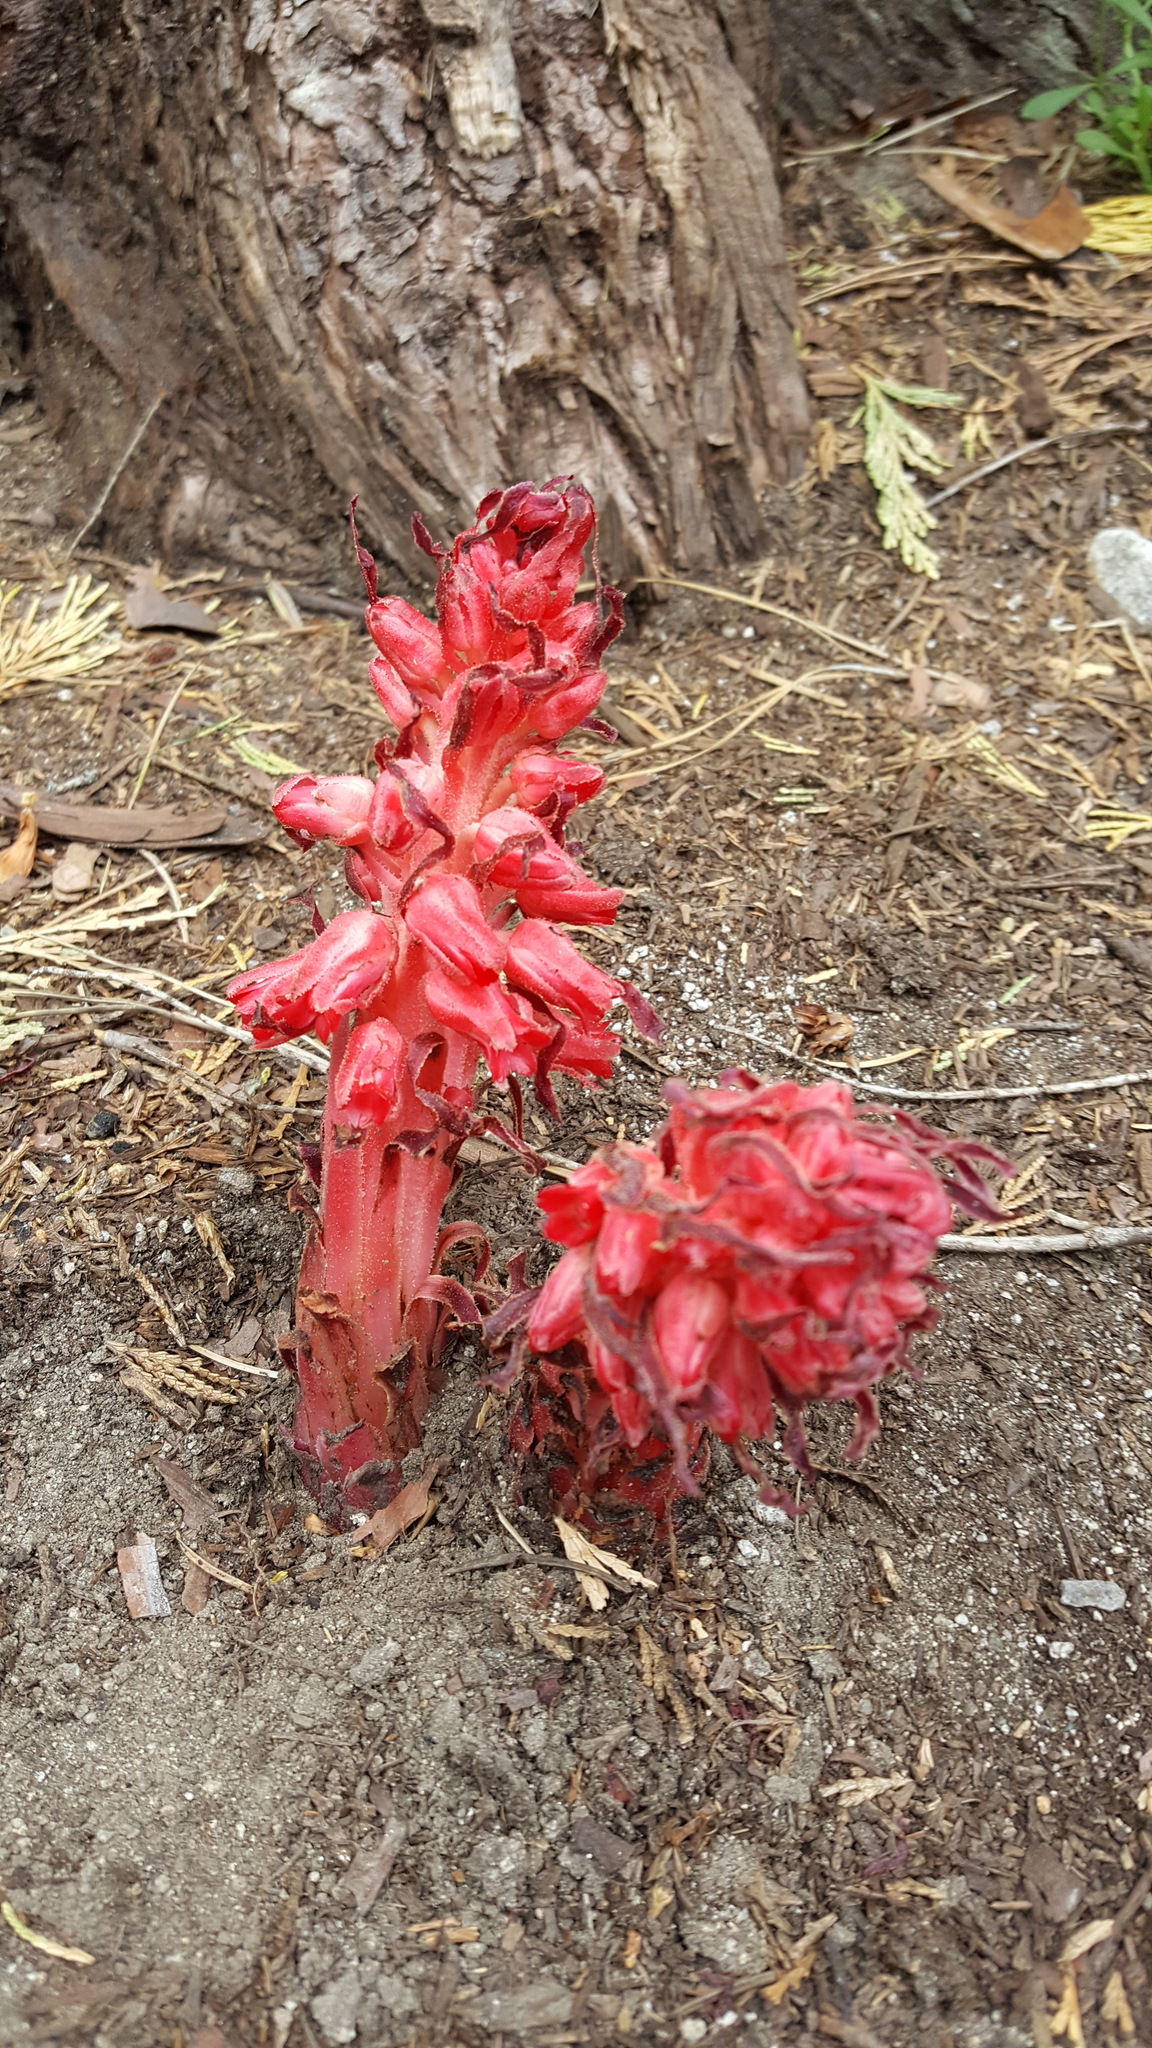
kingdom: Plantae
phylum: Tracheophyta
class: Magnoliopsida
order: Ericales
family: Ericaceae
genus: Sarcodes
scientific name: Sarcodes sanguinea
